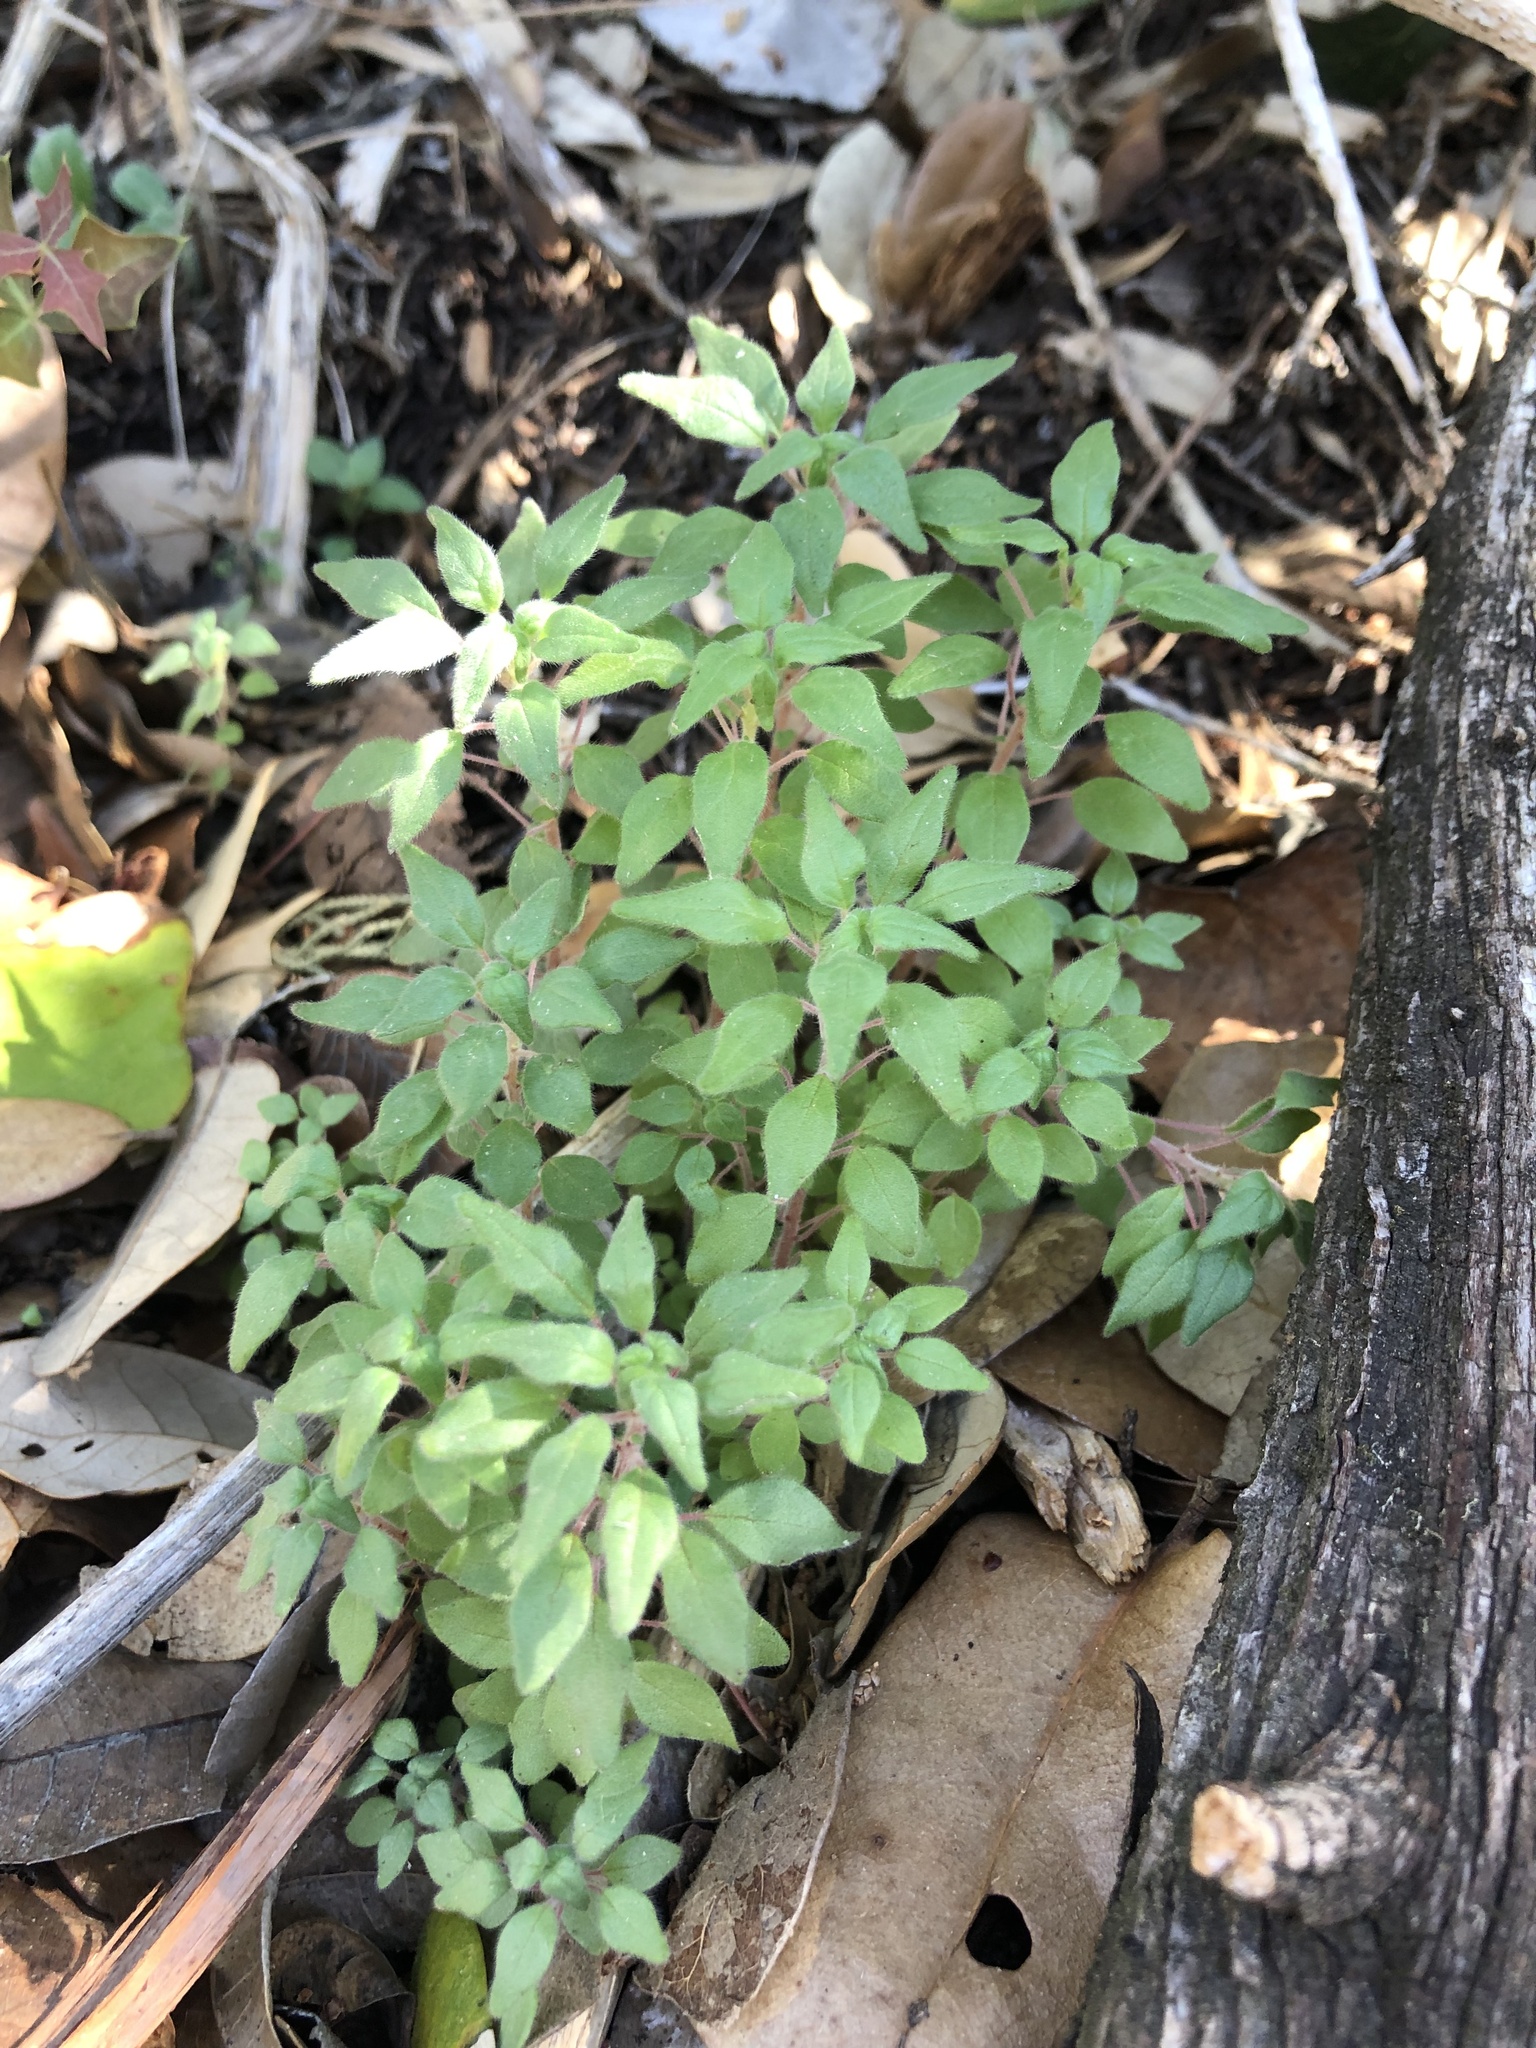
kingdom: Plantae
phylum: Tracheophyta
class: Magnoliopsida
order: Rosales
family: Urticaceae
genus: Parietaria
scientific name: Parietaria pensylvanica
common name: Pennsylvania pellitory
